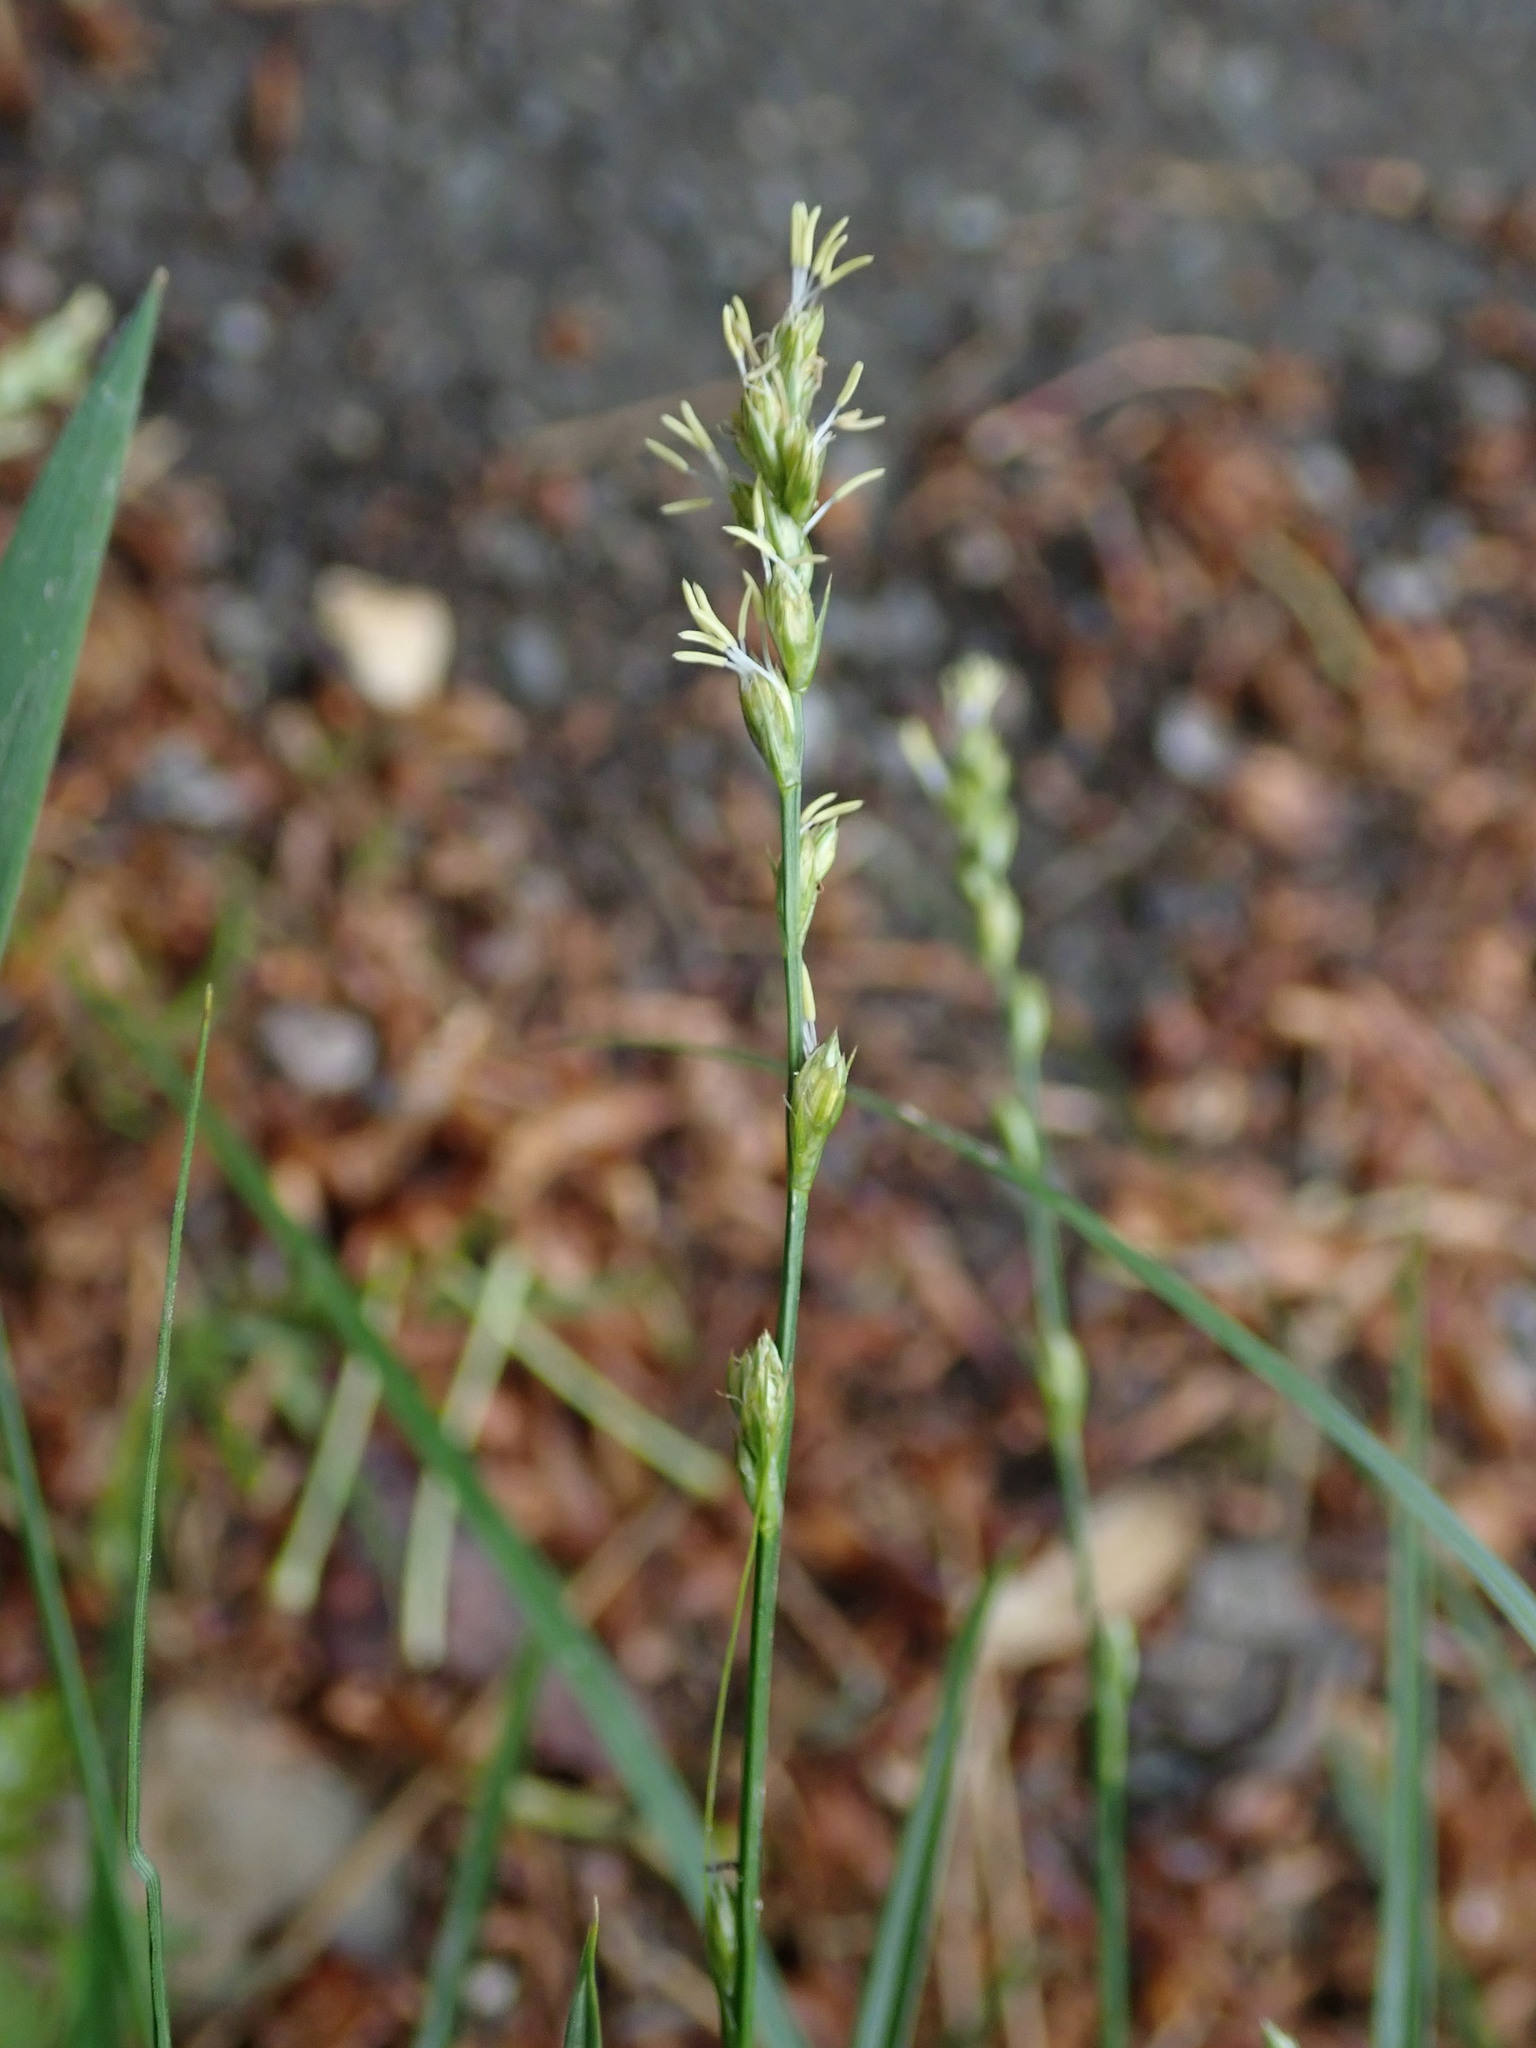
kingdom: Plantae
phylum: Tracheophyta
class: Liliopsida
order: Poales
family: Cyperaceae
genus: Carex
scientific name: Carex divulsa
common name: Grassland sedge
